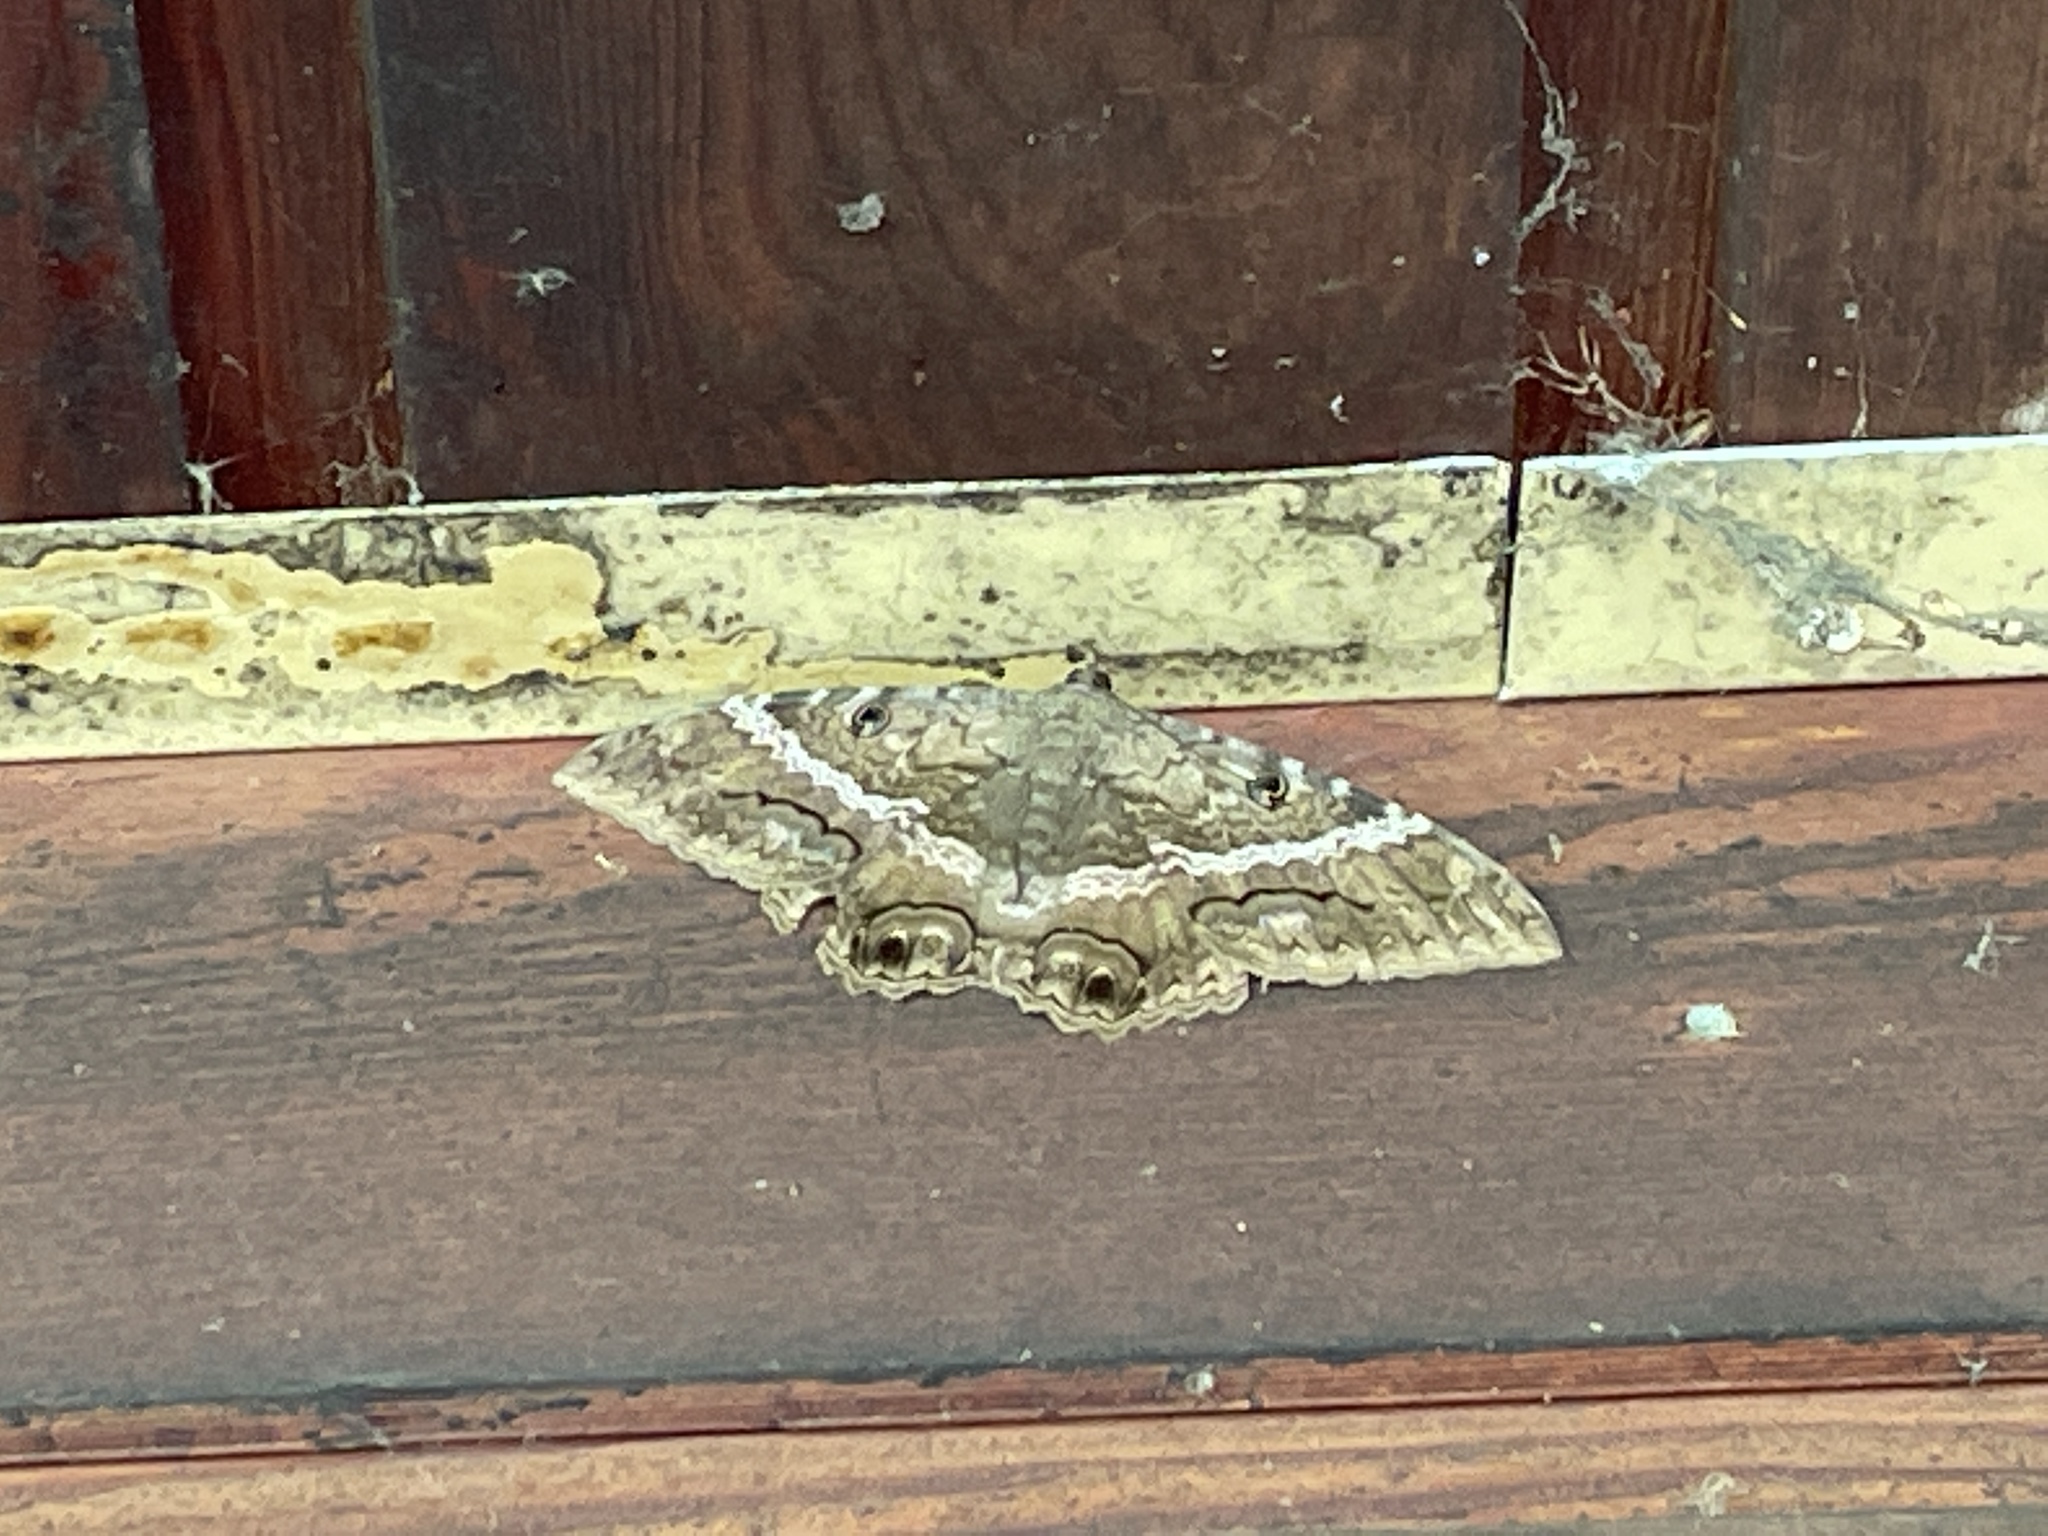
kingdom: Animalia
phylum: Arthropoda
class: Insecta
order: Lepidoptera
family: Erebidae
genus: Ascalapha
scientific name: Ascalapha odorata
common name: Black witch
